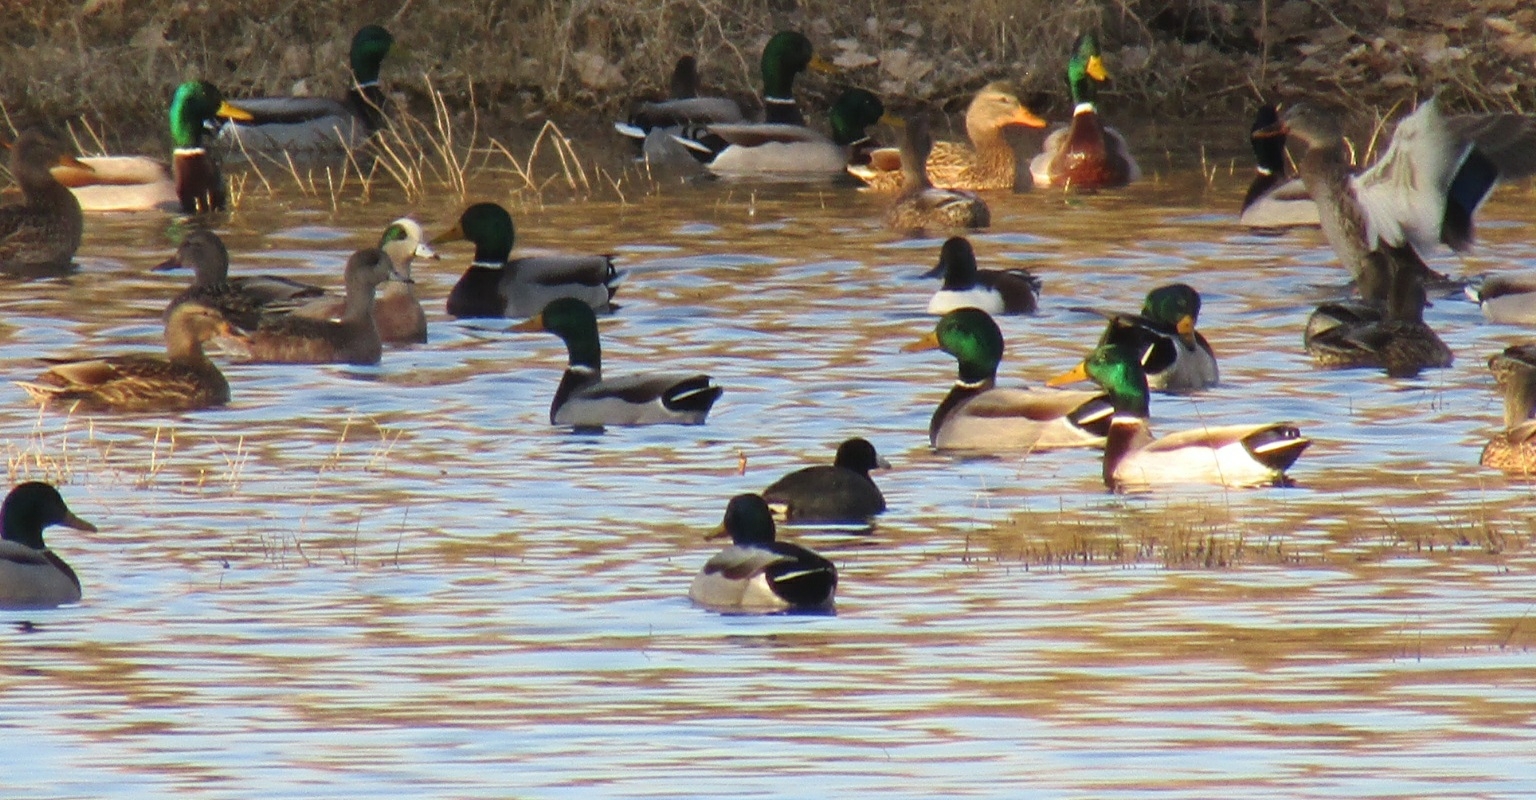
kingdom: Animalia
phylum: Chordata
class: Aves
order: Anseriformes
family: Anatidae
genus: Anas
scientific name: Anas platyrhynchos
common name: Mallard
